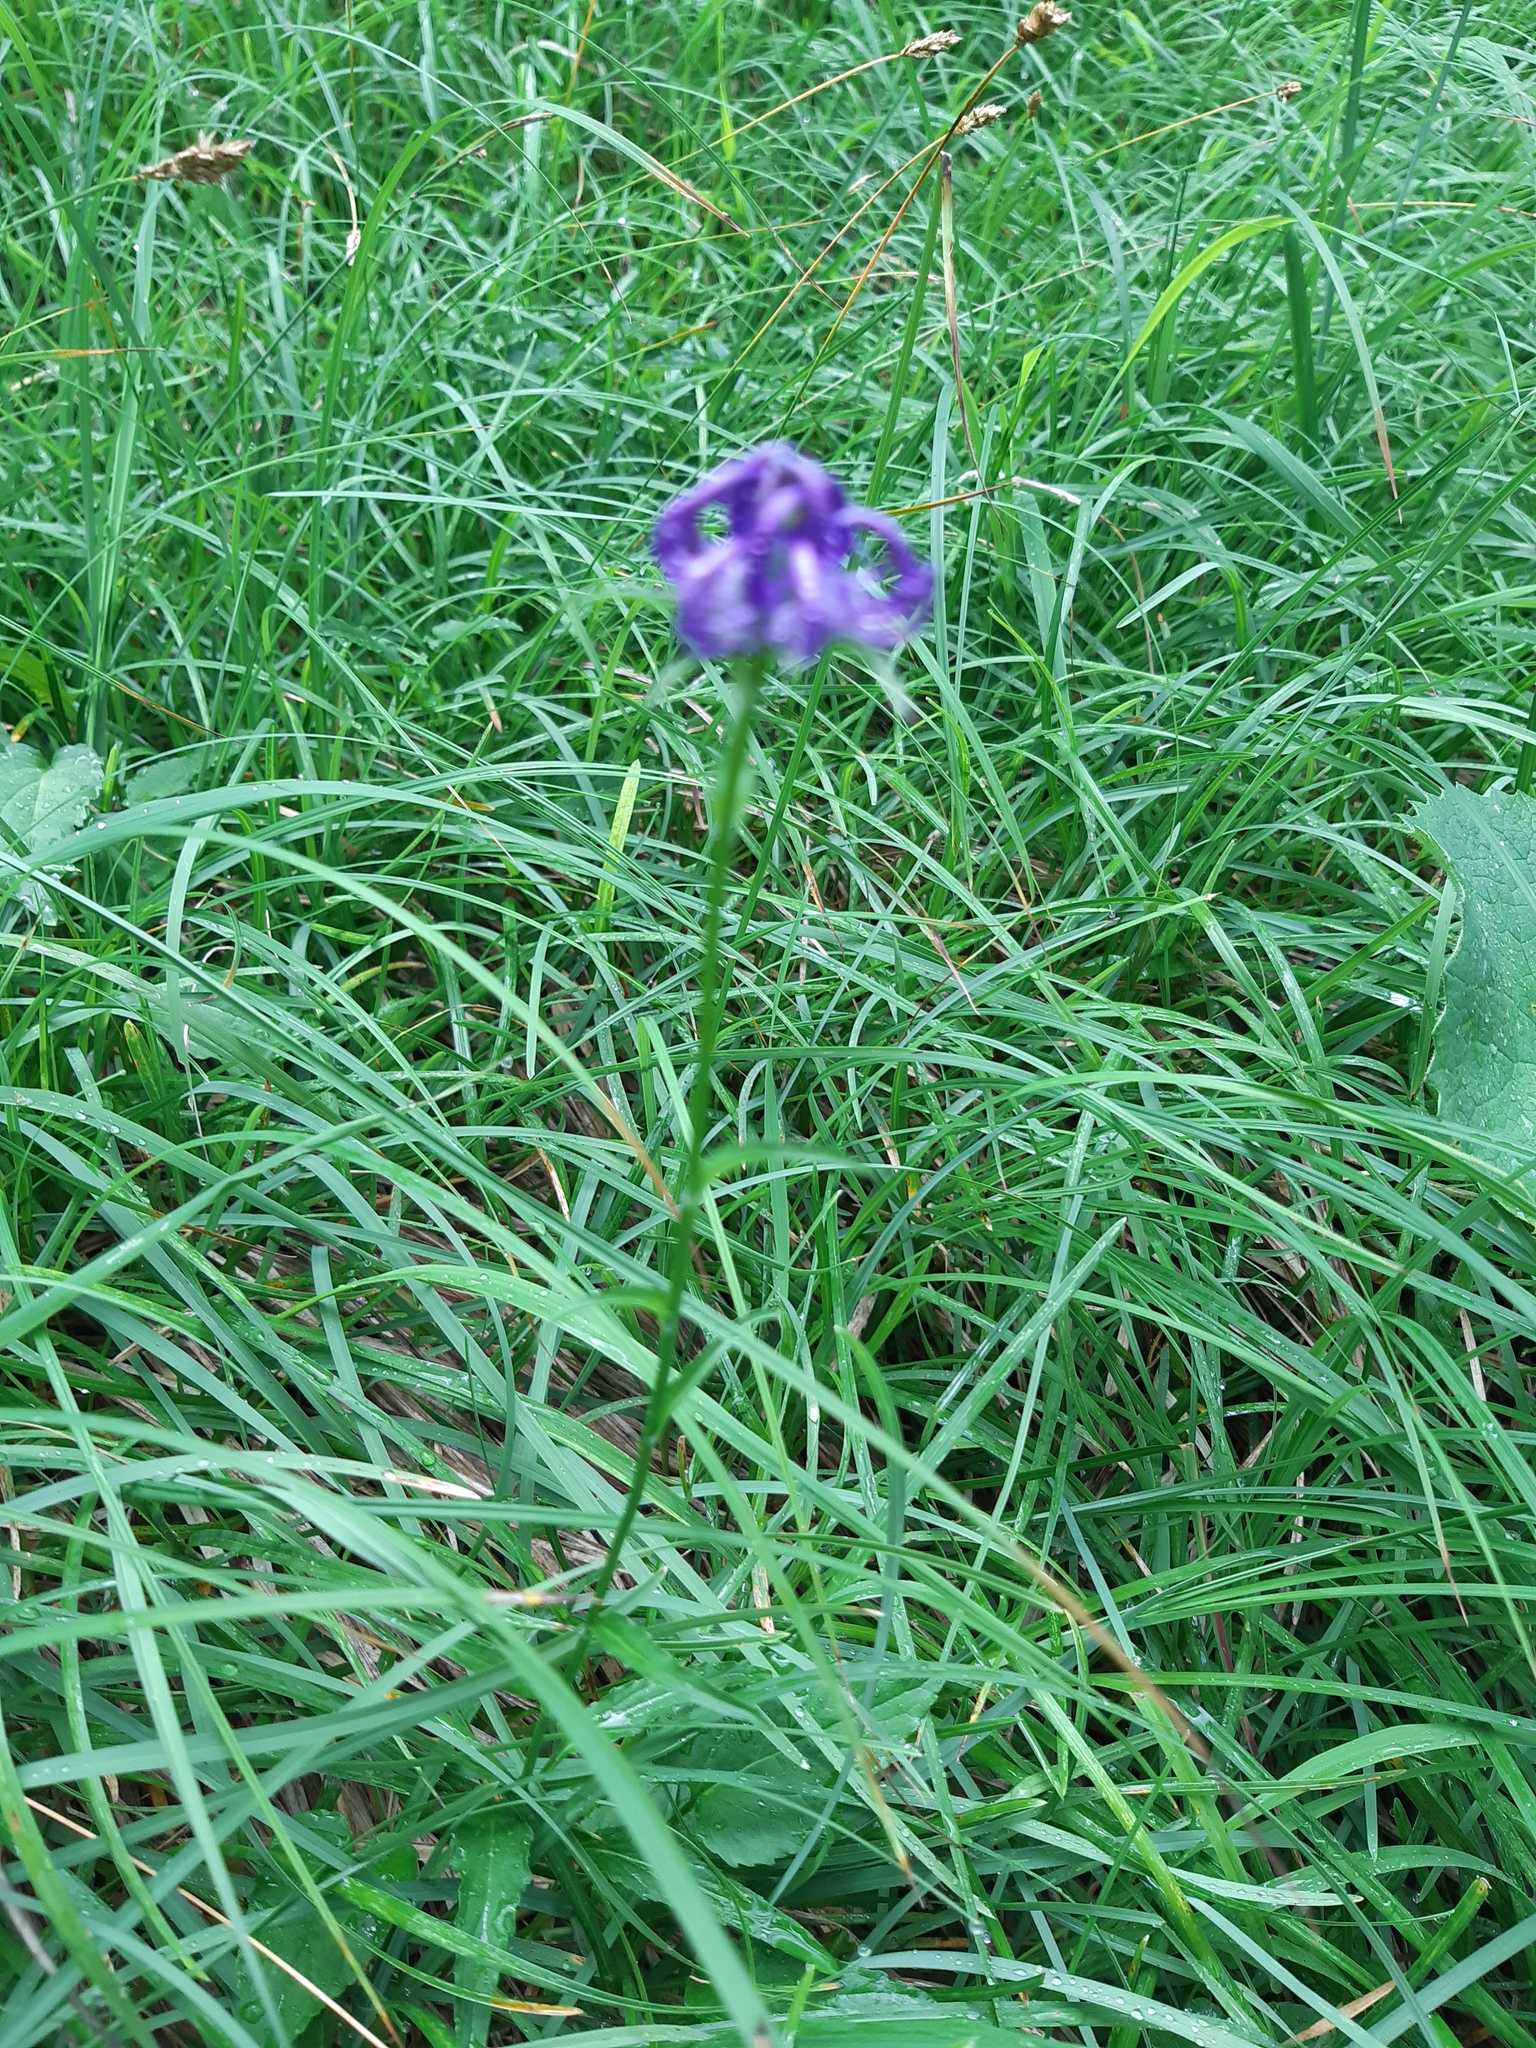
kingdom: Plantae
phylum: Tracheophyta
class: Magnoliopsida
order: Asterales
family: Campanulaceae
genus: Phyteuma
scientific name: Phyteuma orbiculare
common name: Round-headed rampion
